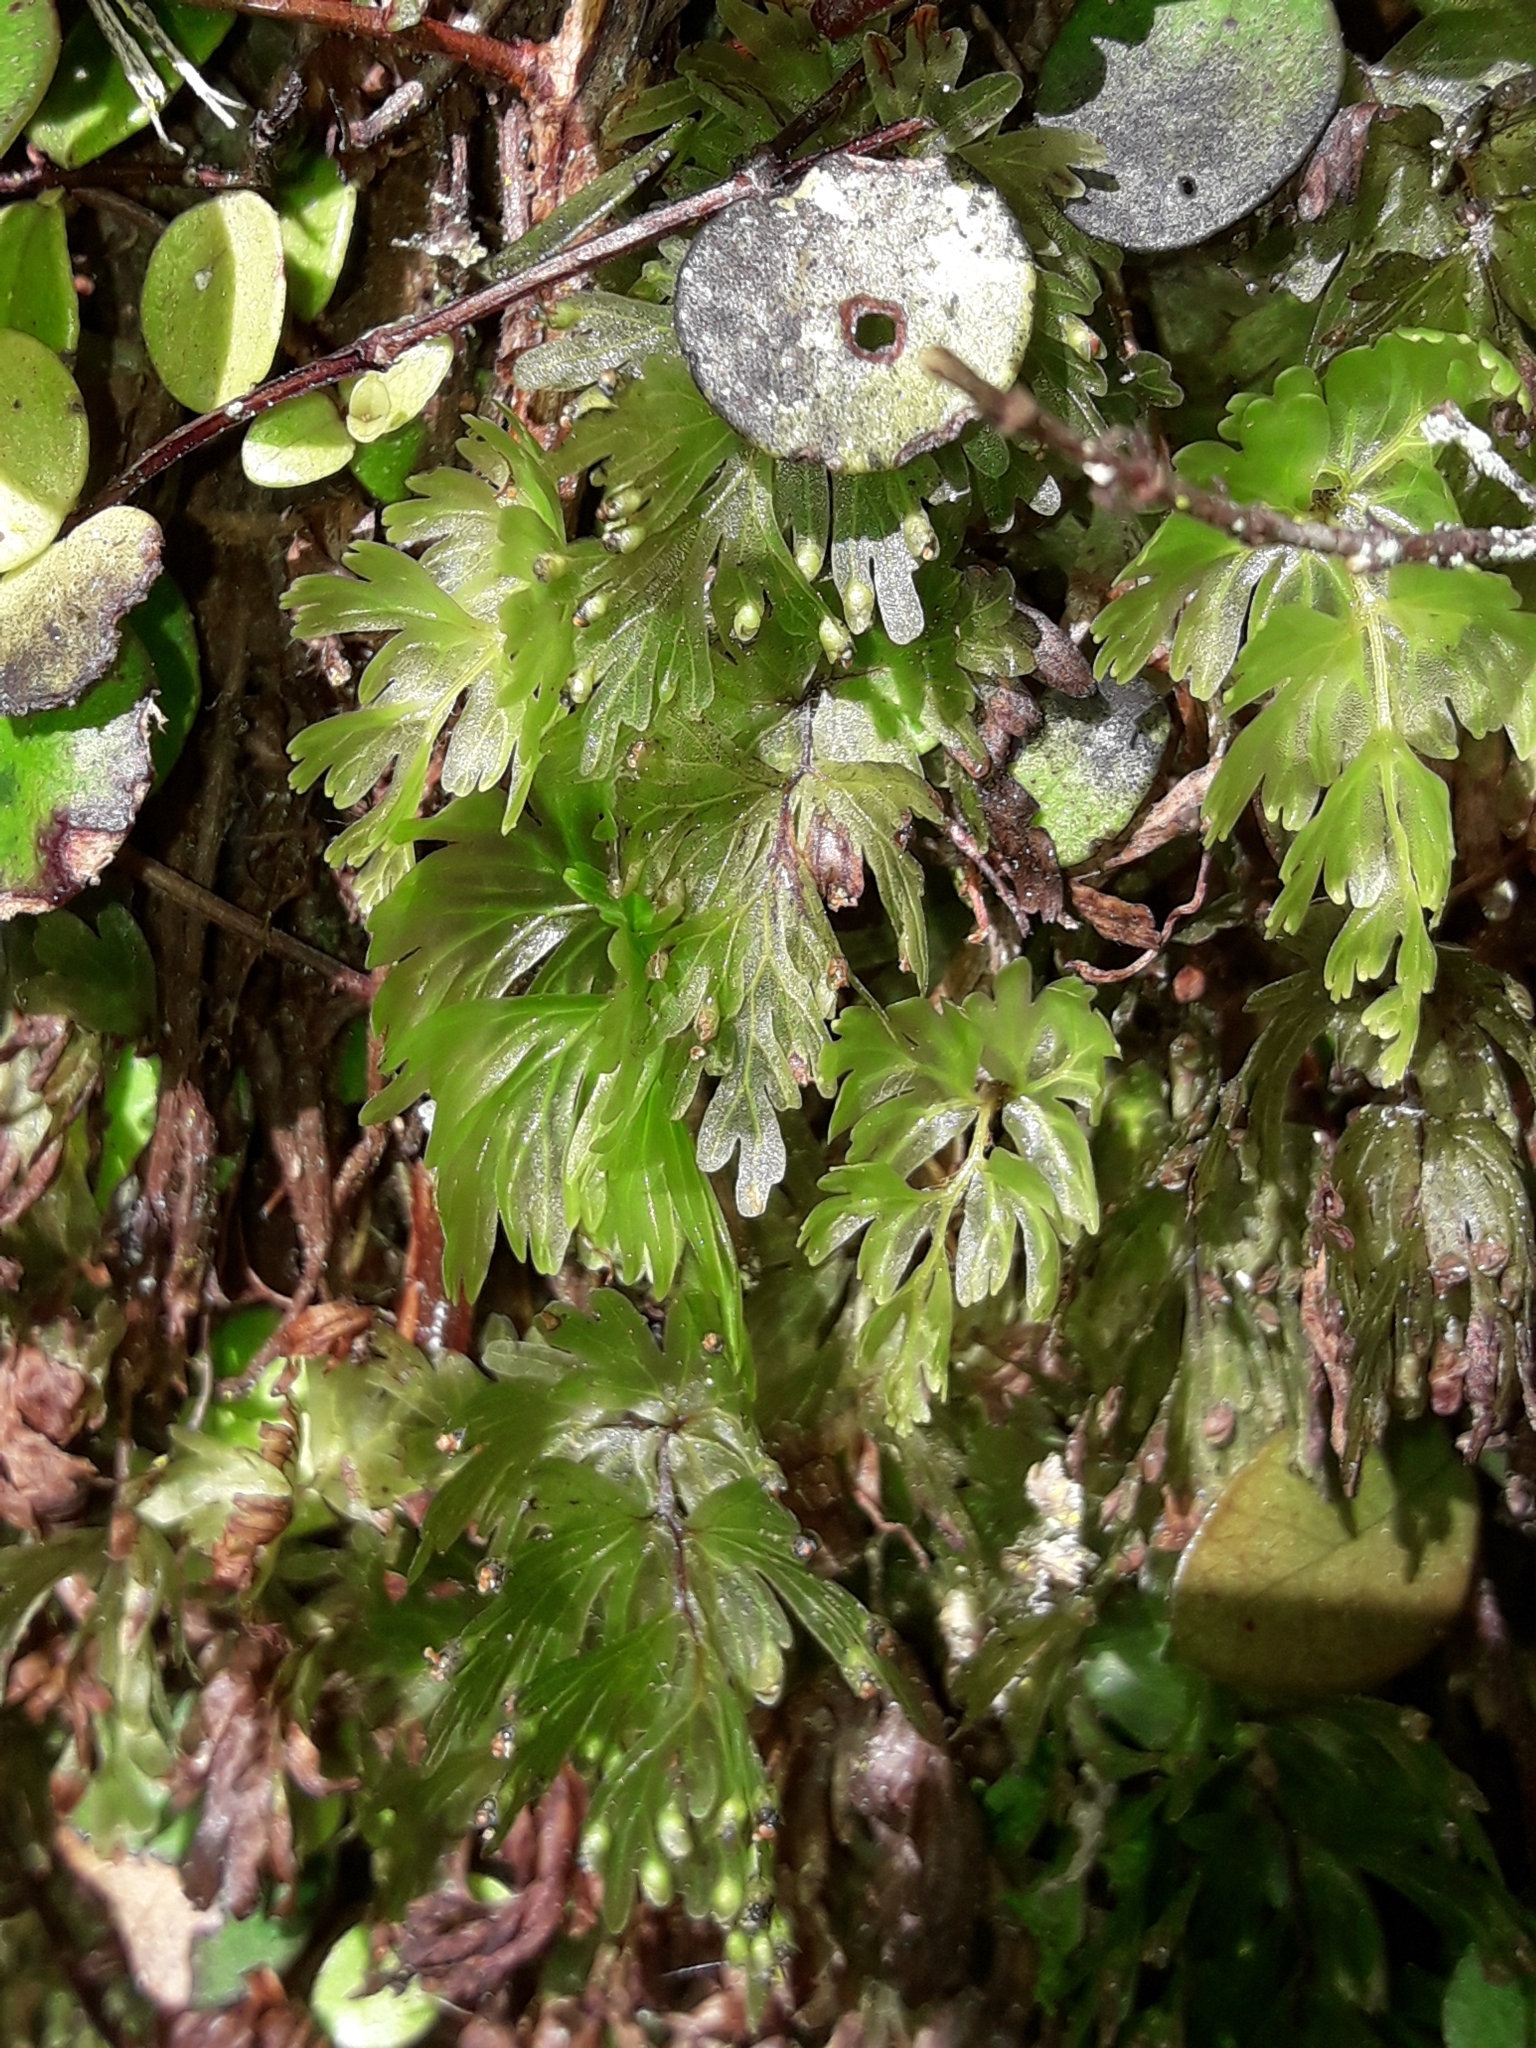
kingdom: Plantae
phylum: Tracheophyta
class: Polypodiopsida
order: Hymenophyllales
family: Hymenophyllaceae
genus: Hymenophyllum
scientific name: Hymenophyllum flabellatum
